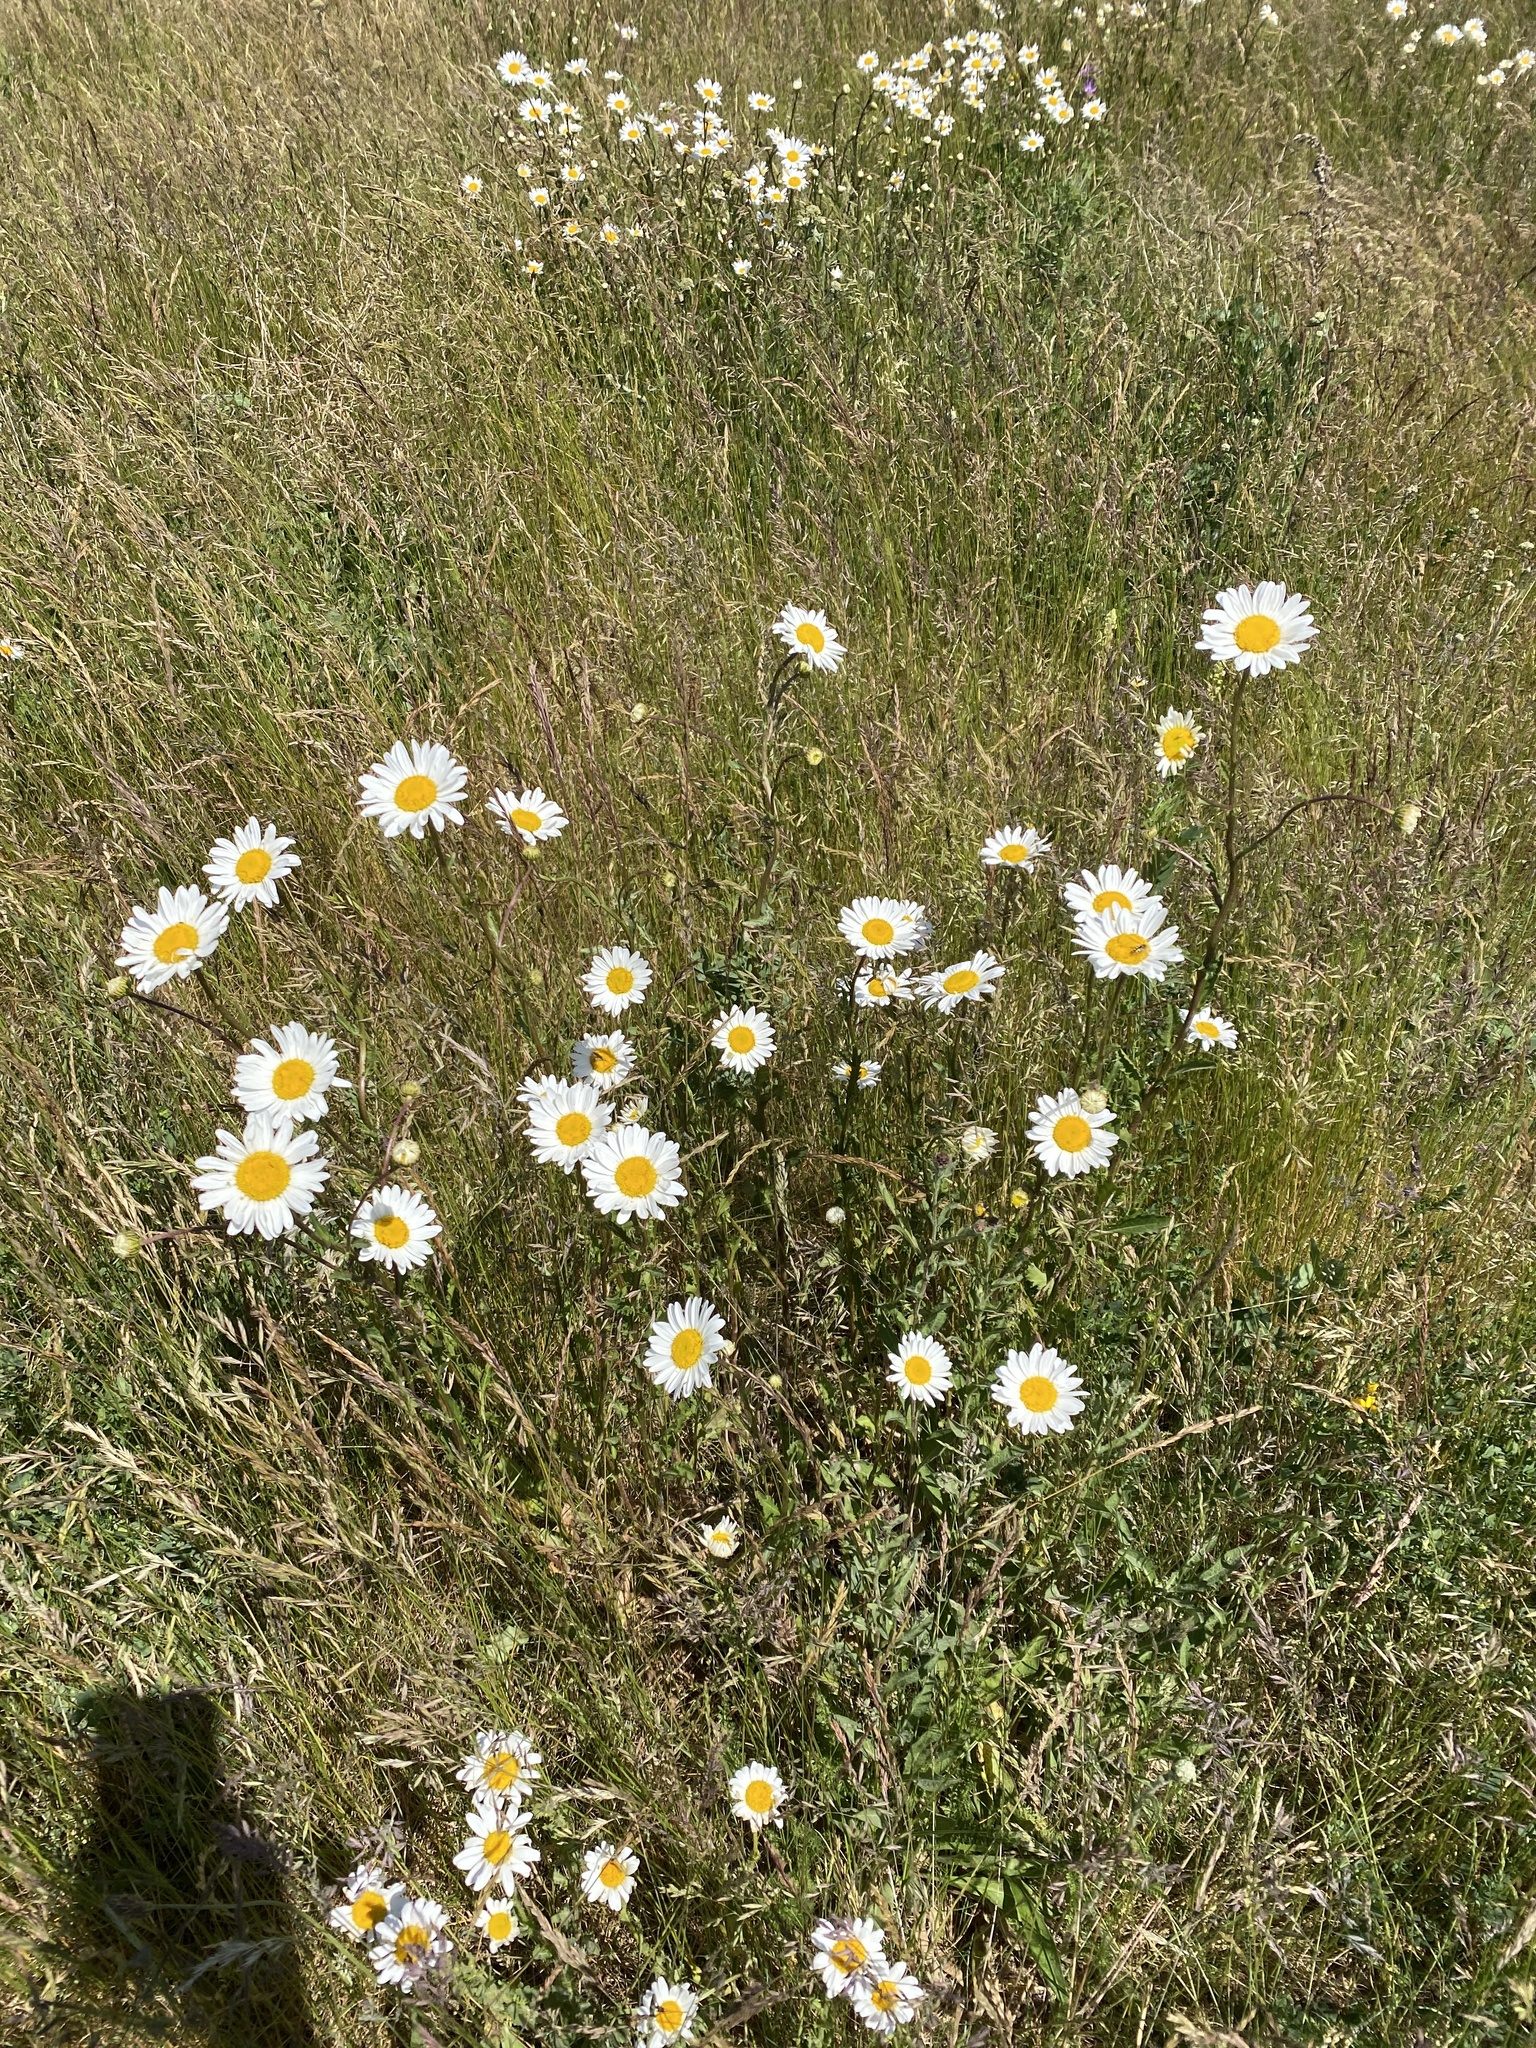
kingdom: Plantae
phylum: Tracheophyta
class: Magnoliopsida
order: Asterales
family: Asteraceae
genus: Leucanthemum
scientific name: Leucanthemum vulgare
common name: Oxeye daisy
